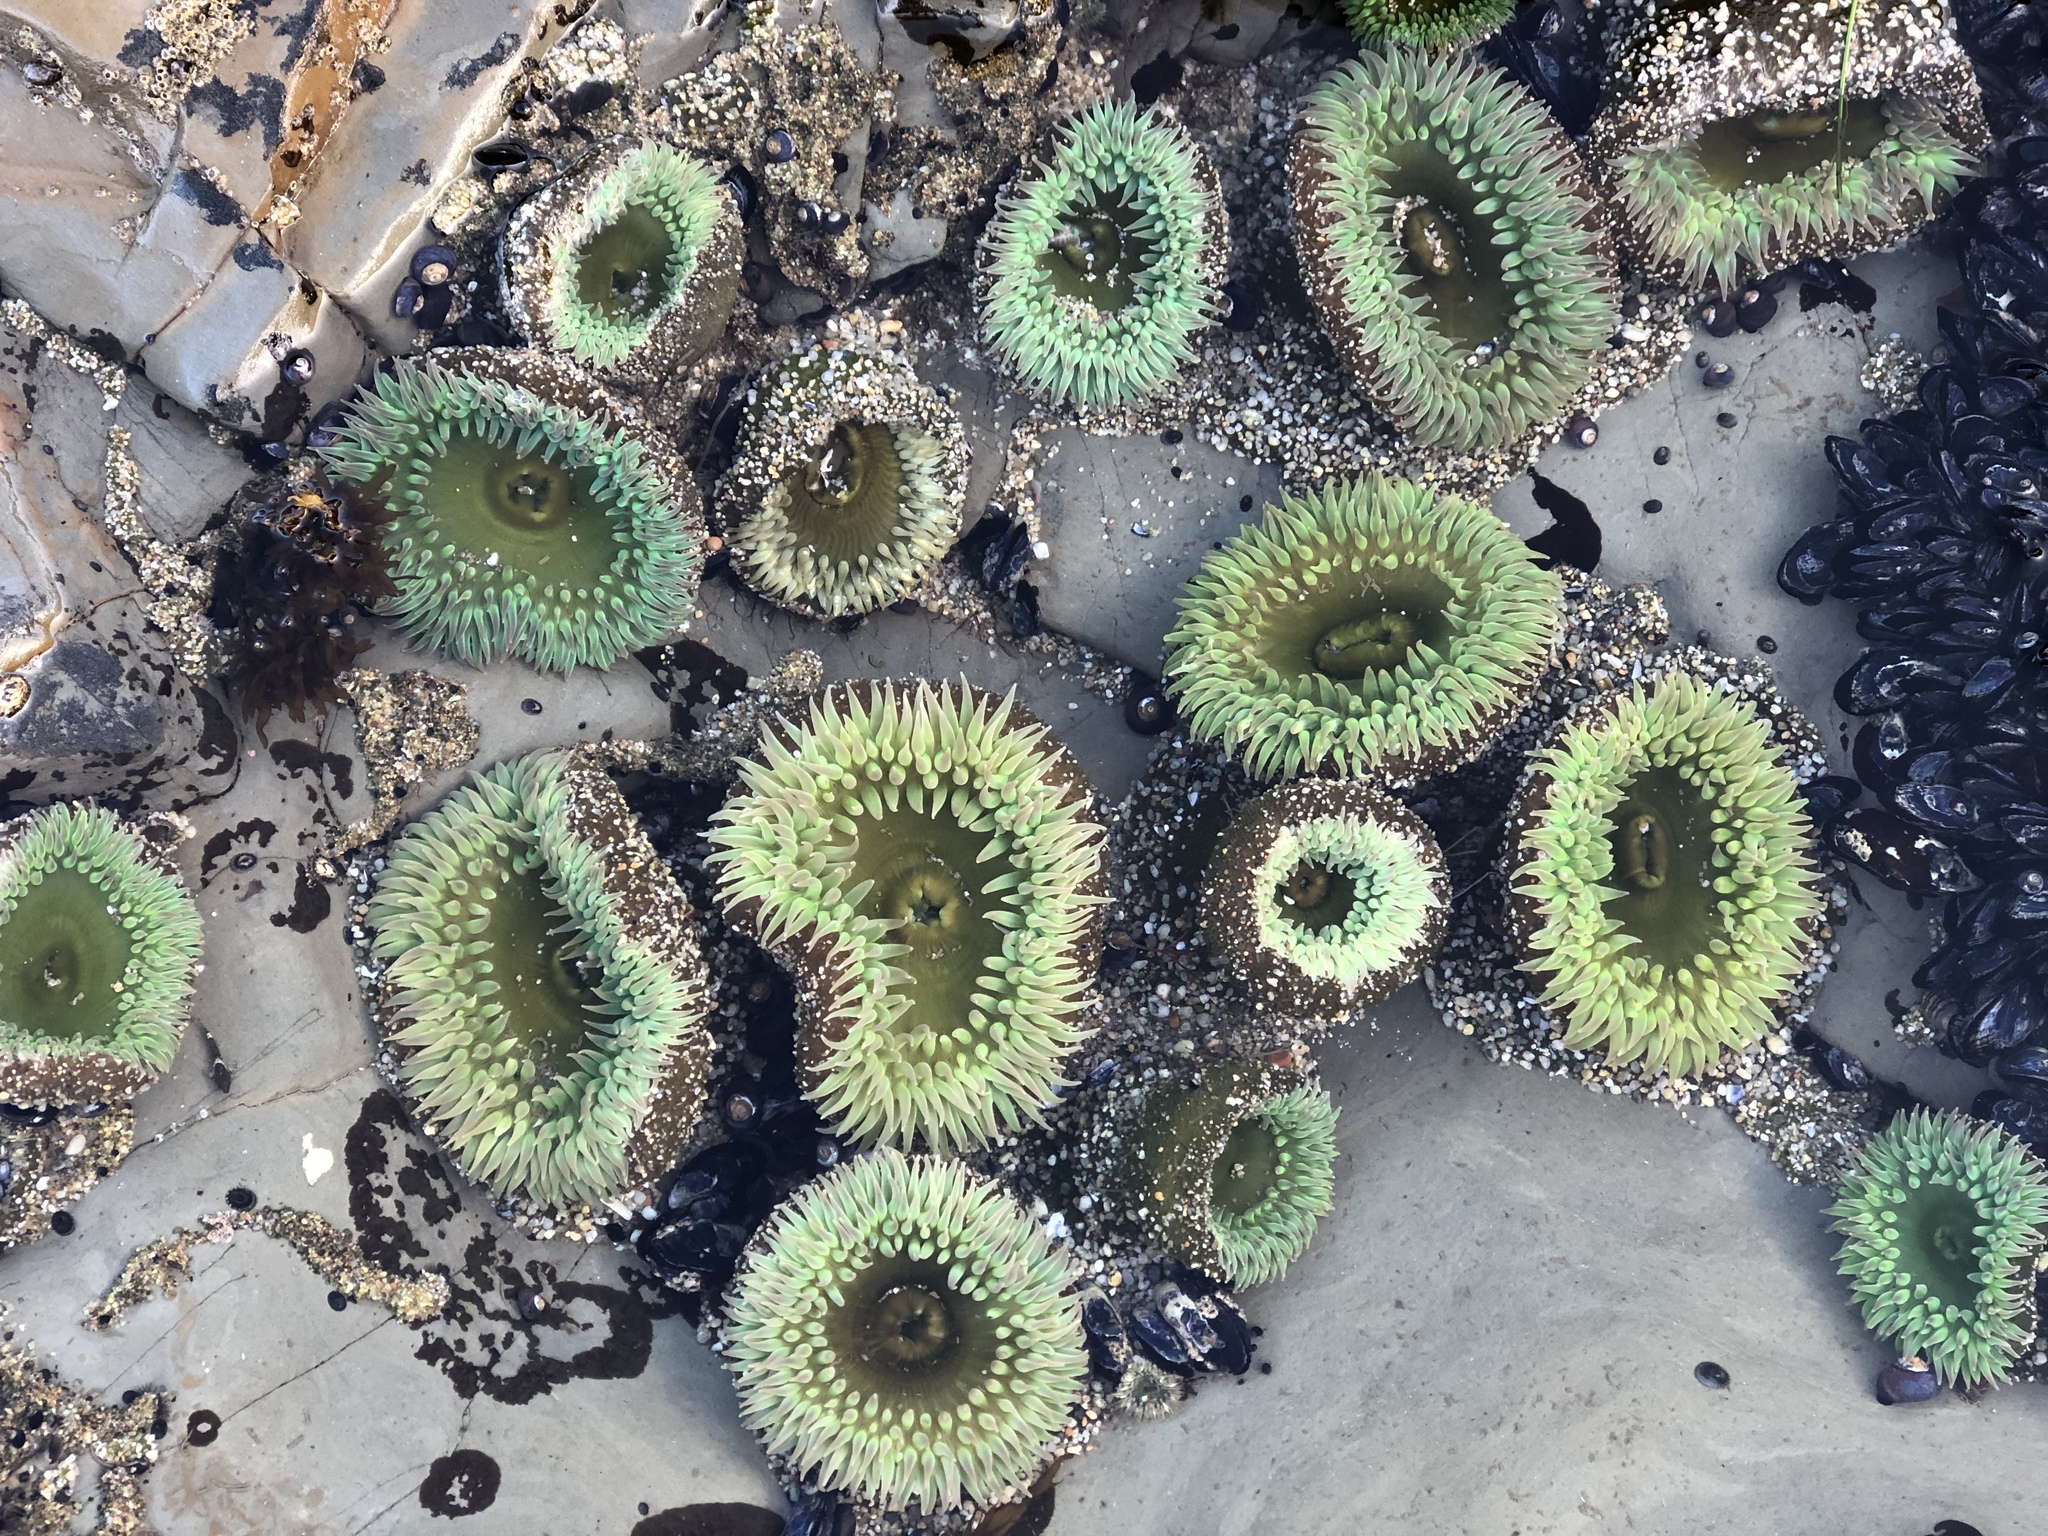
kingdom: Animalia
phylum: Cnidaria
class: Anthozoa
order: Actiniaria
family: Actiniidae
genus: Anthopleura
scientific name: Anthopleura xanthogrammica
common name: Giant green anemone
